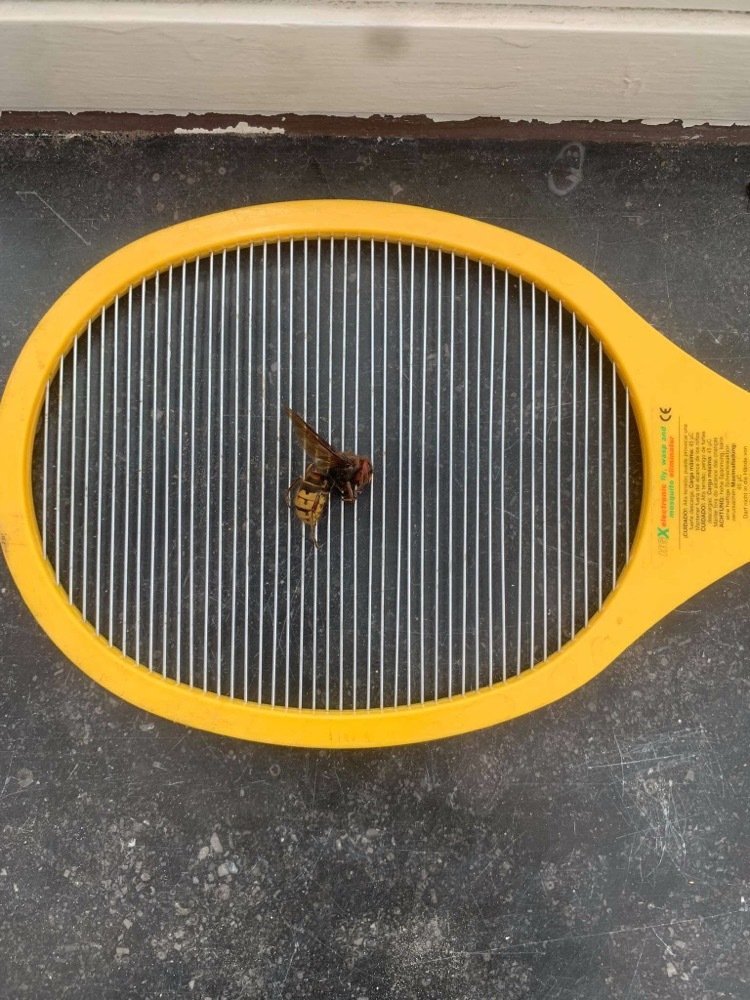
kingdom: Animalia
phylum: Arthropoda
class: Insecta
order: Hymenoptera
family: Vespidae
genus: Vespa
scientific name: Vespa crabro
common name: Hornet
